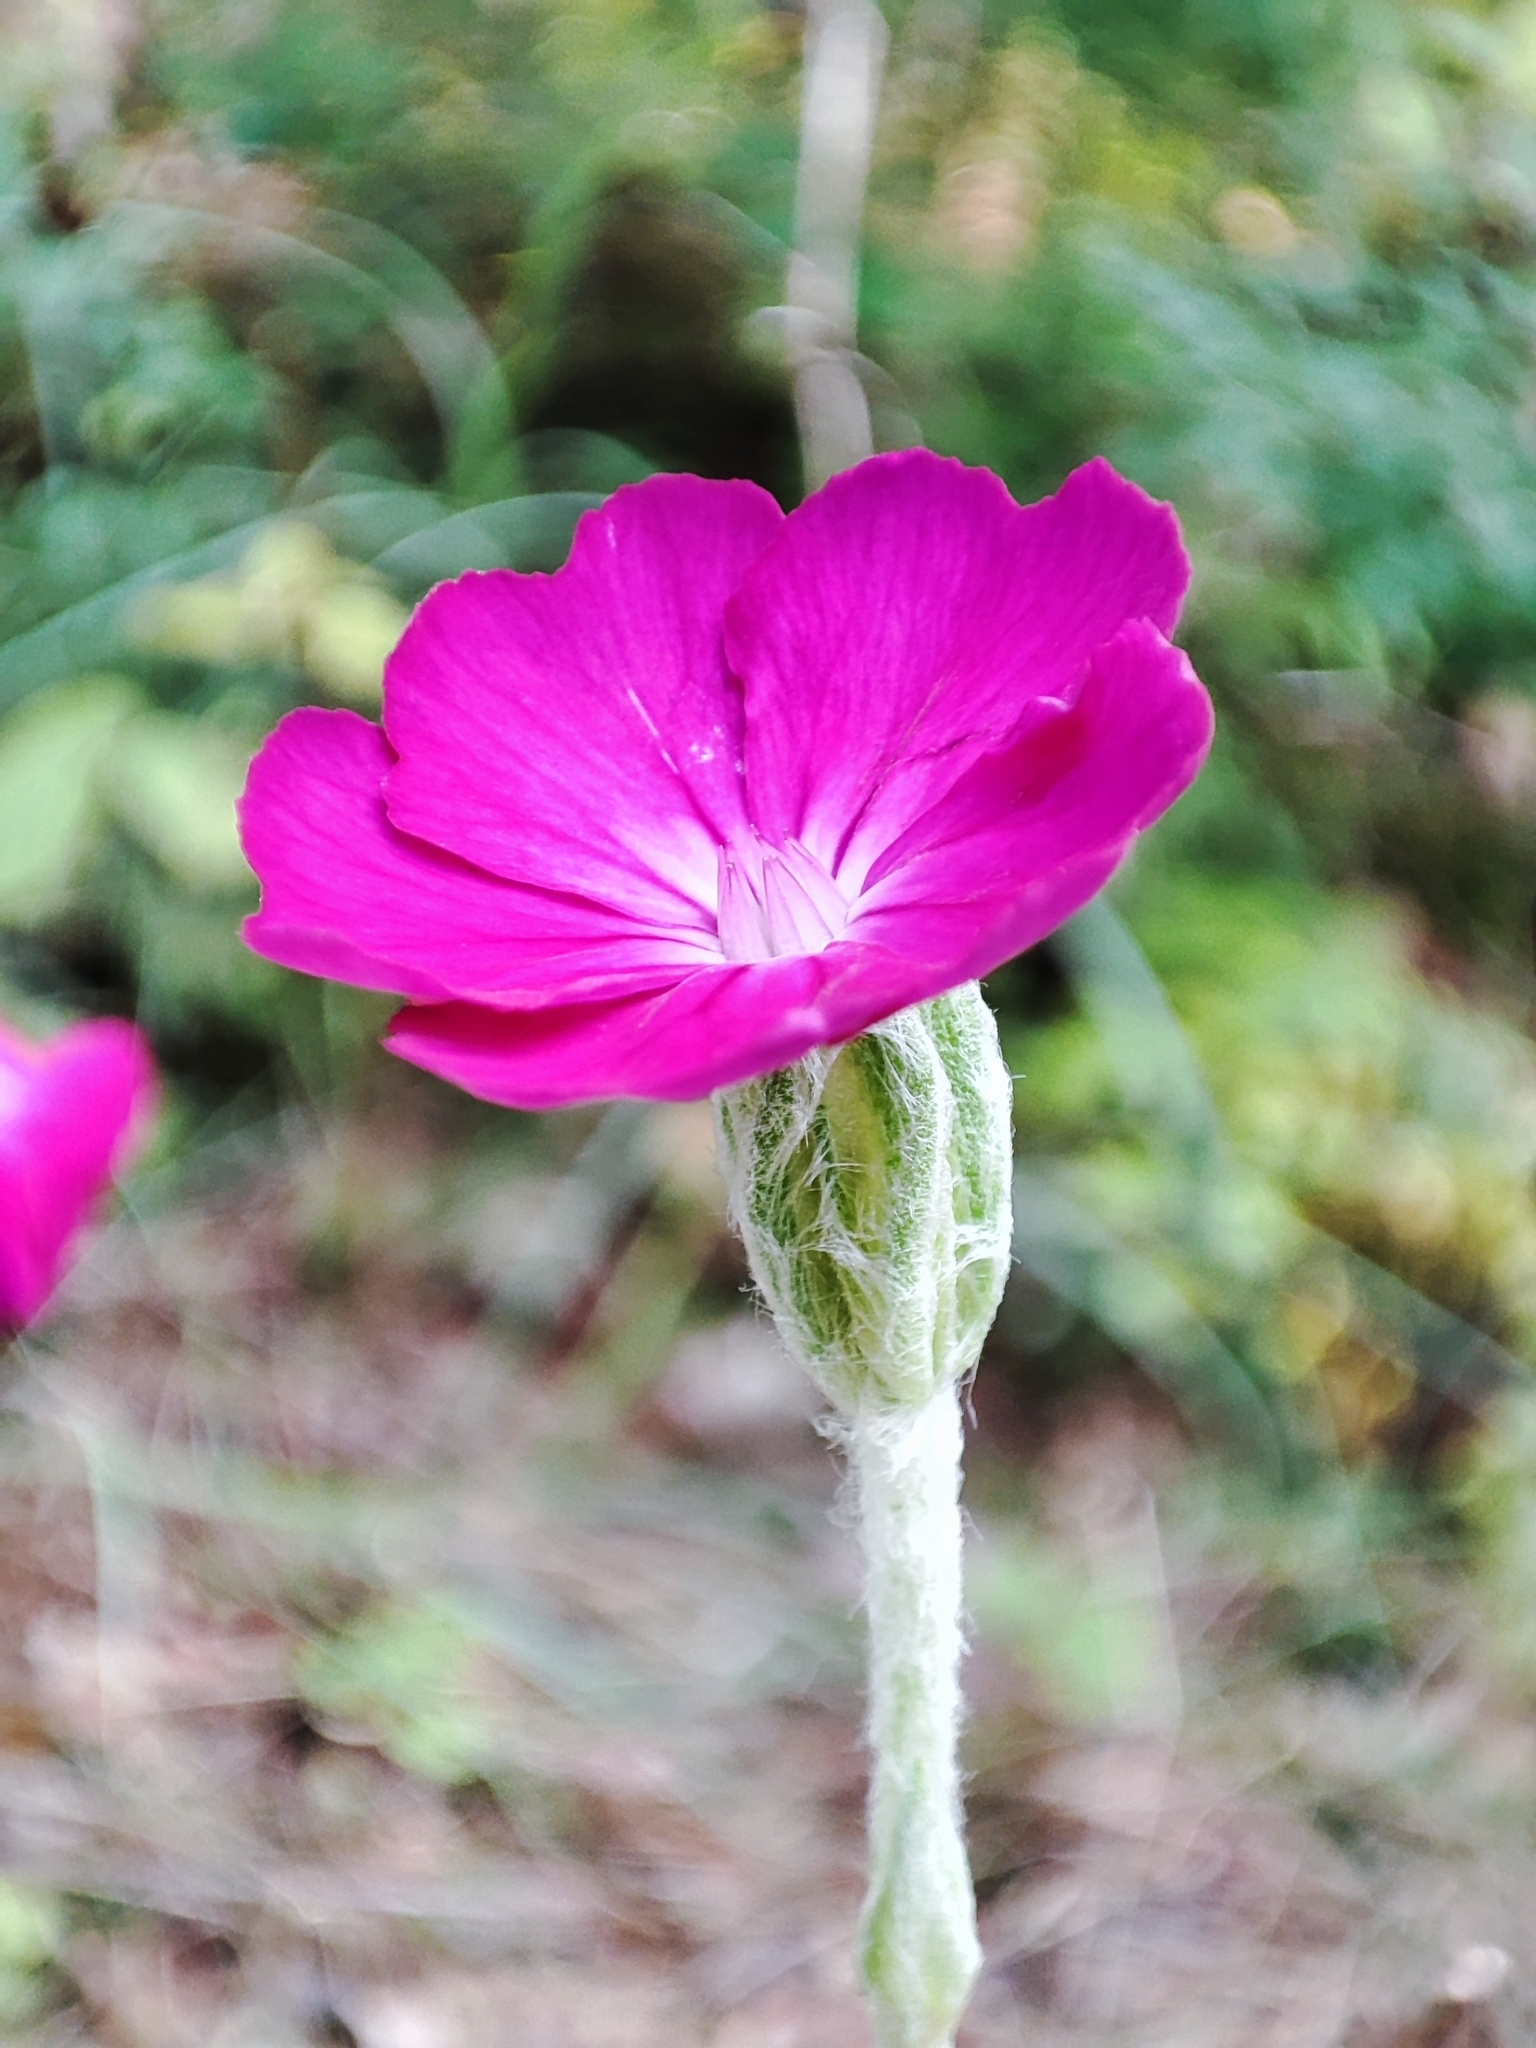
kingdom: Plantae
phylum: Tracheophyta
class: Magnoliopsida
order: Caryophyllales
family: Caryophyllaceae
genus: Silene
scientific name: Silene coronaria
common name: Rose campion
